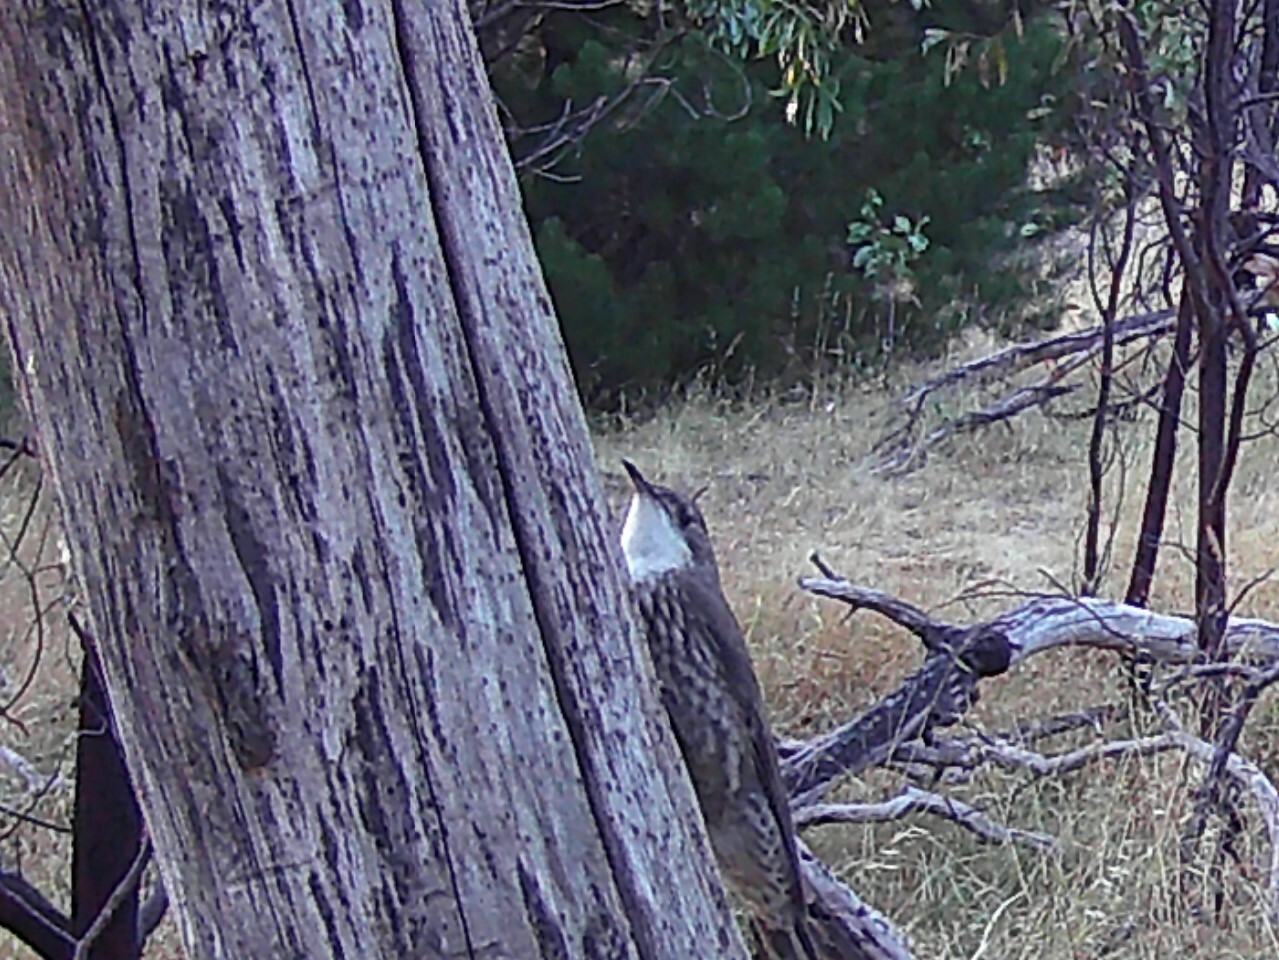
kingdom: Animalia
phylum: Chordata
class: Aves
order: Passeriformes
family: Climacteridae
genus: Cormobates
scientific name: Cormobates leucophaea
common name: White-throated treecreeper
